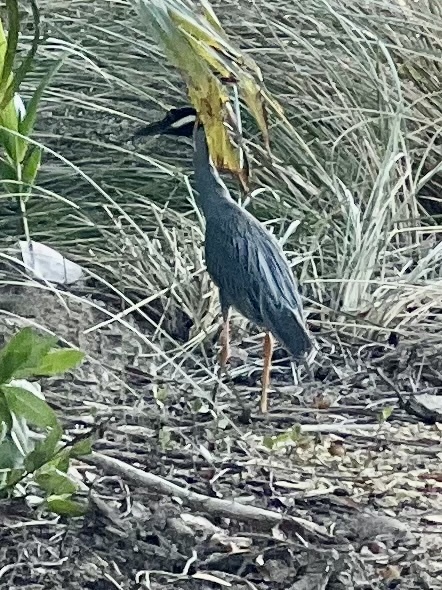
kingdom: Animalia
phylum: Chordata
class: Aves
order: Pelecaniformes
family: Ardeidae
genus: Nyctanassa
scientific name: Nyctanassa violacea
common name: Yellow-crowned night heron
